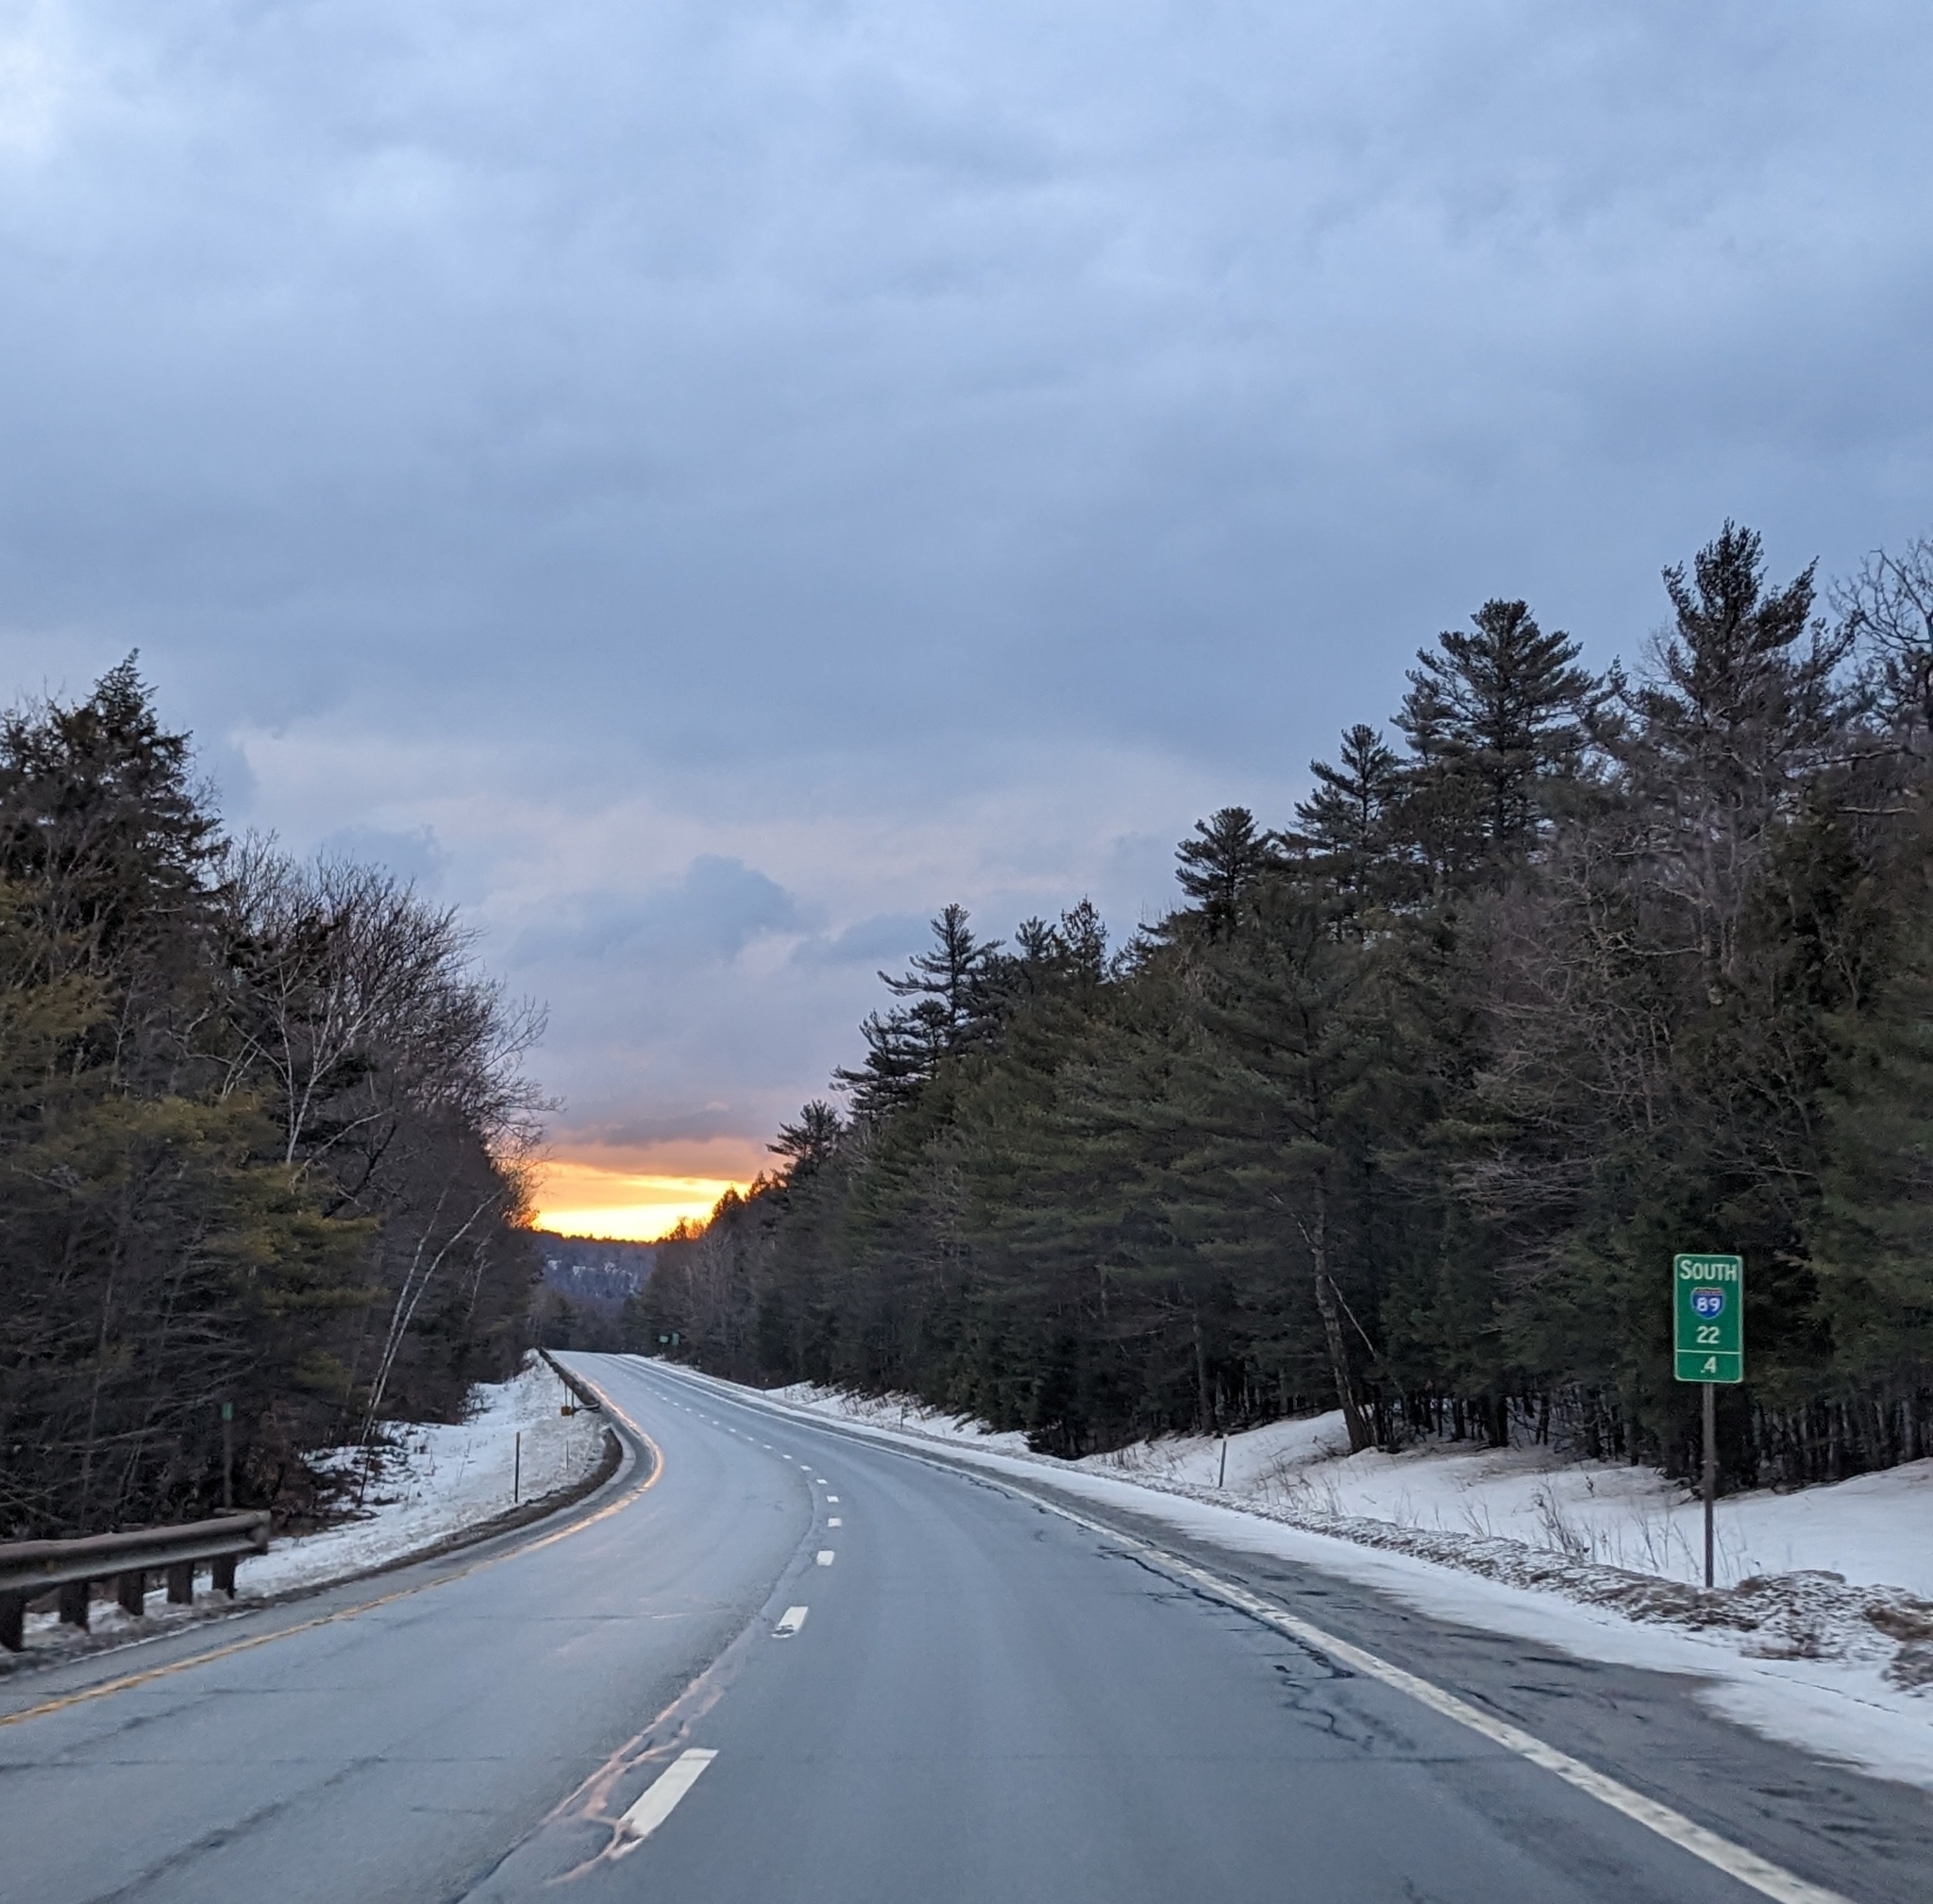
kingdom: Plantae
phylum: Tracheophyta
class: Pinopsida
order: Pinales
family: Pinaceae
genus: Pinus
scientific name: Pinus strobus
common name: Weymouth pine
